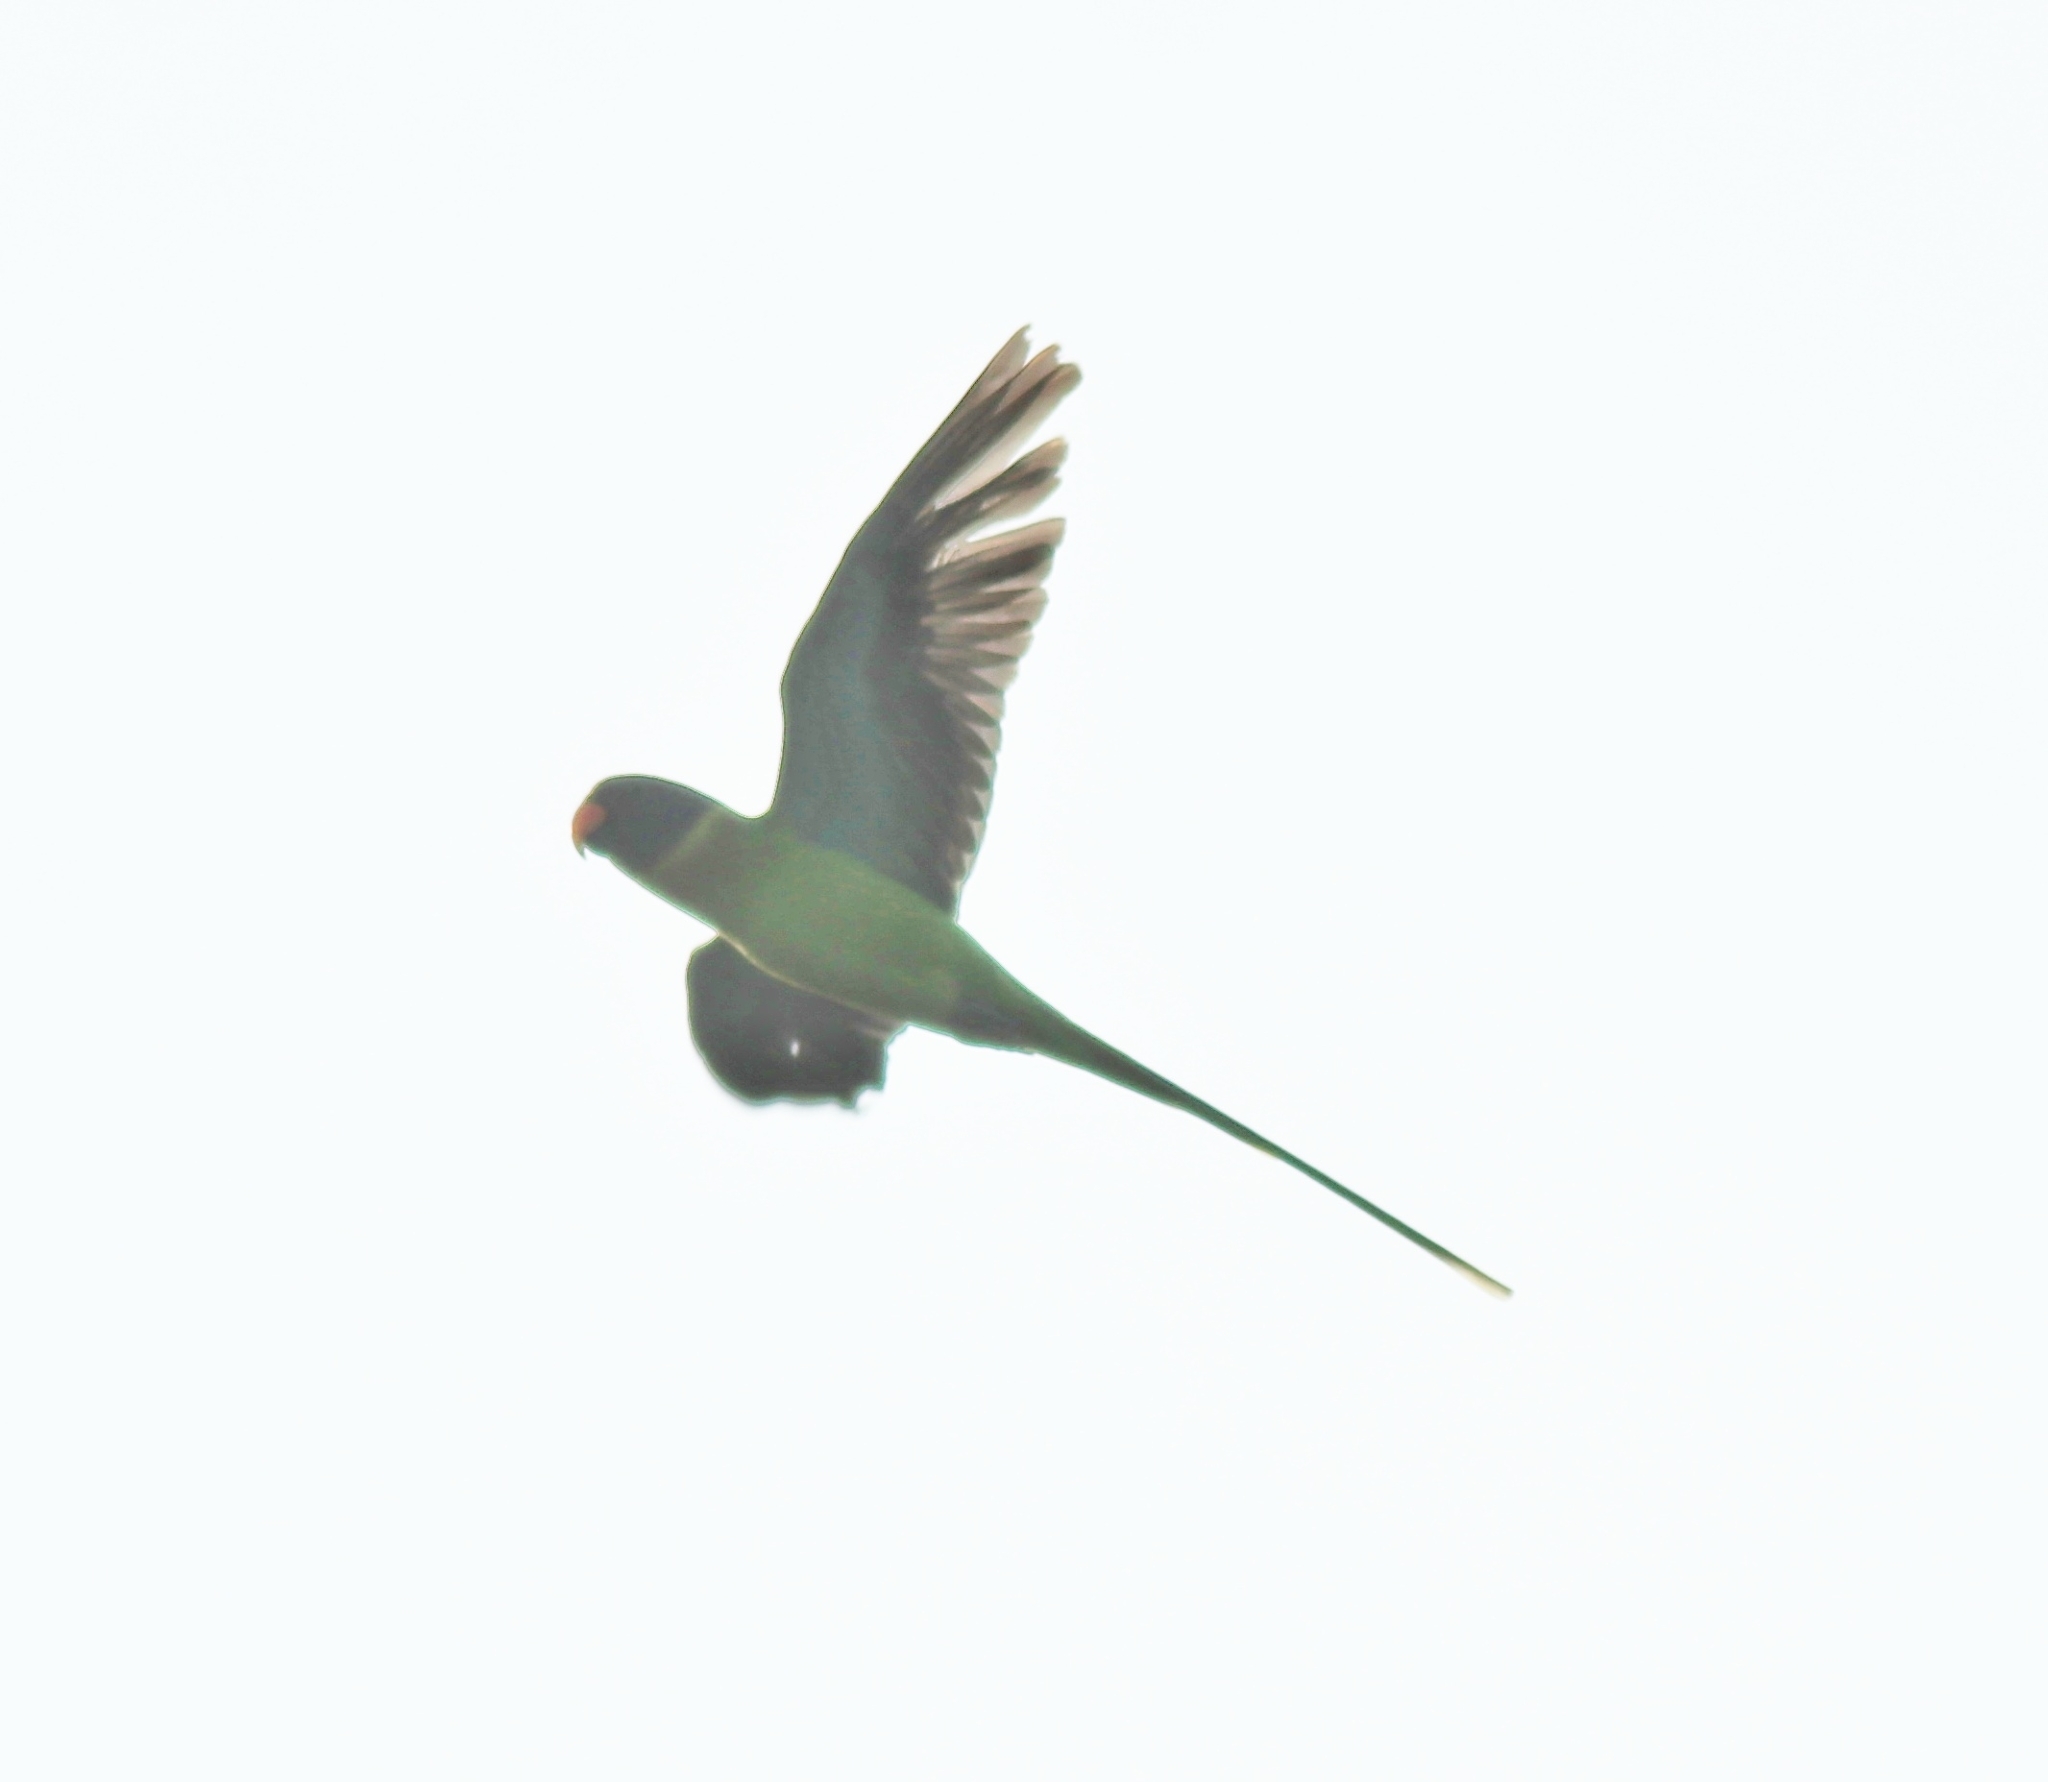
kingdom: Animalia
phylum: Chordata
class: Aves
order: Psittaciformes
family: Psittacidae
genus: Psittacula
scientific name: Psittacula cyanocephala
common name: Plum-headed parakeet
